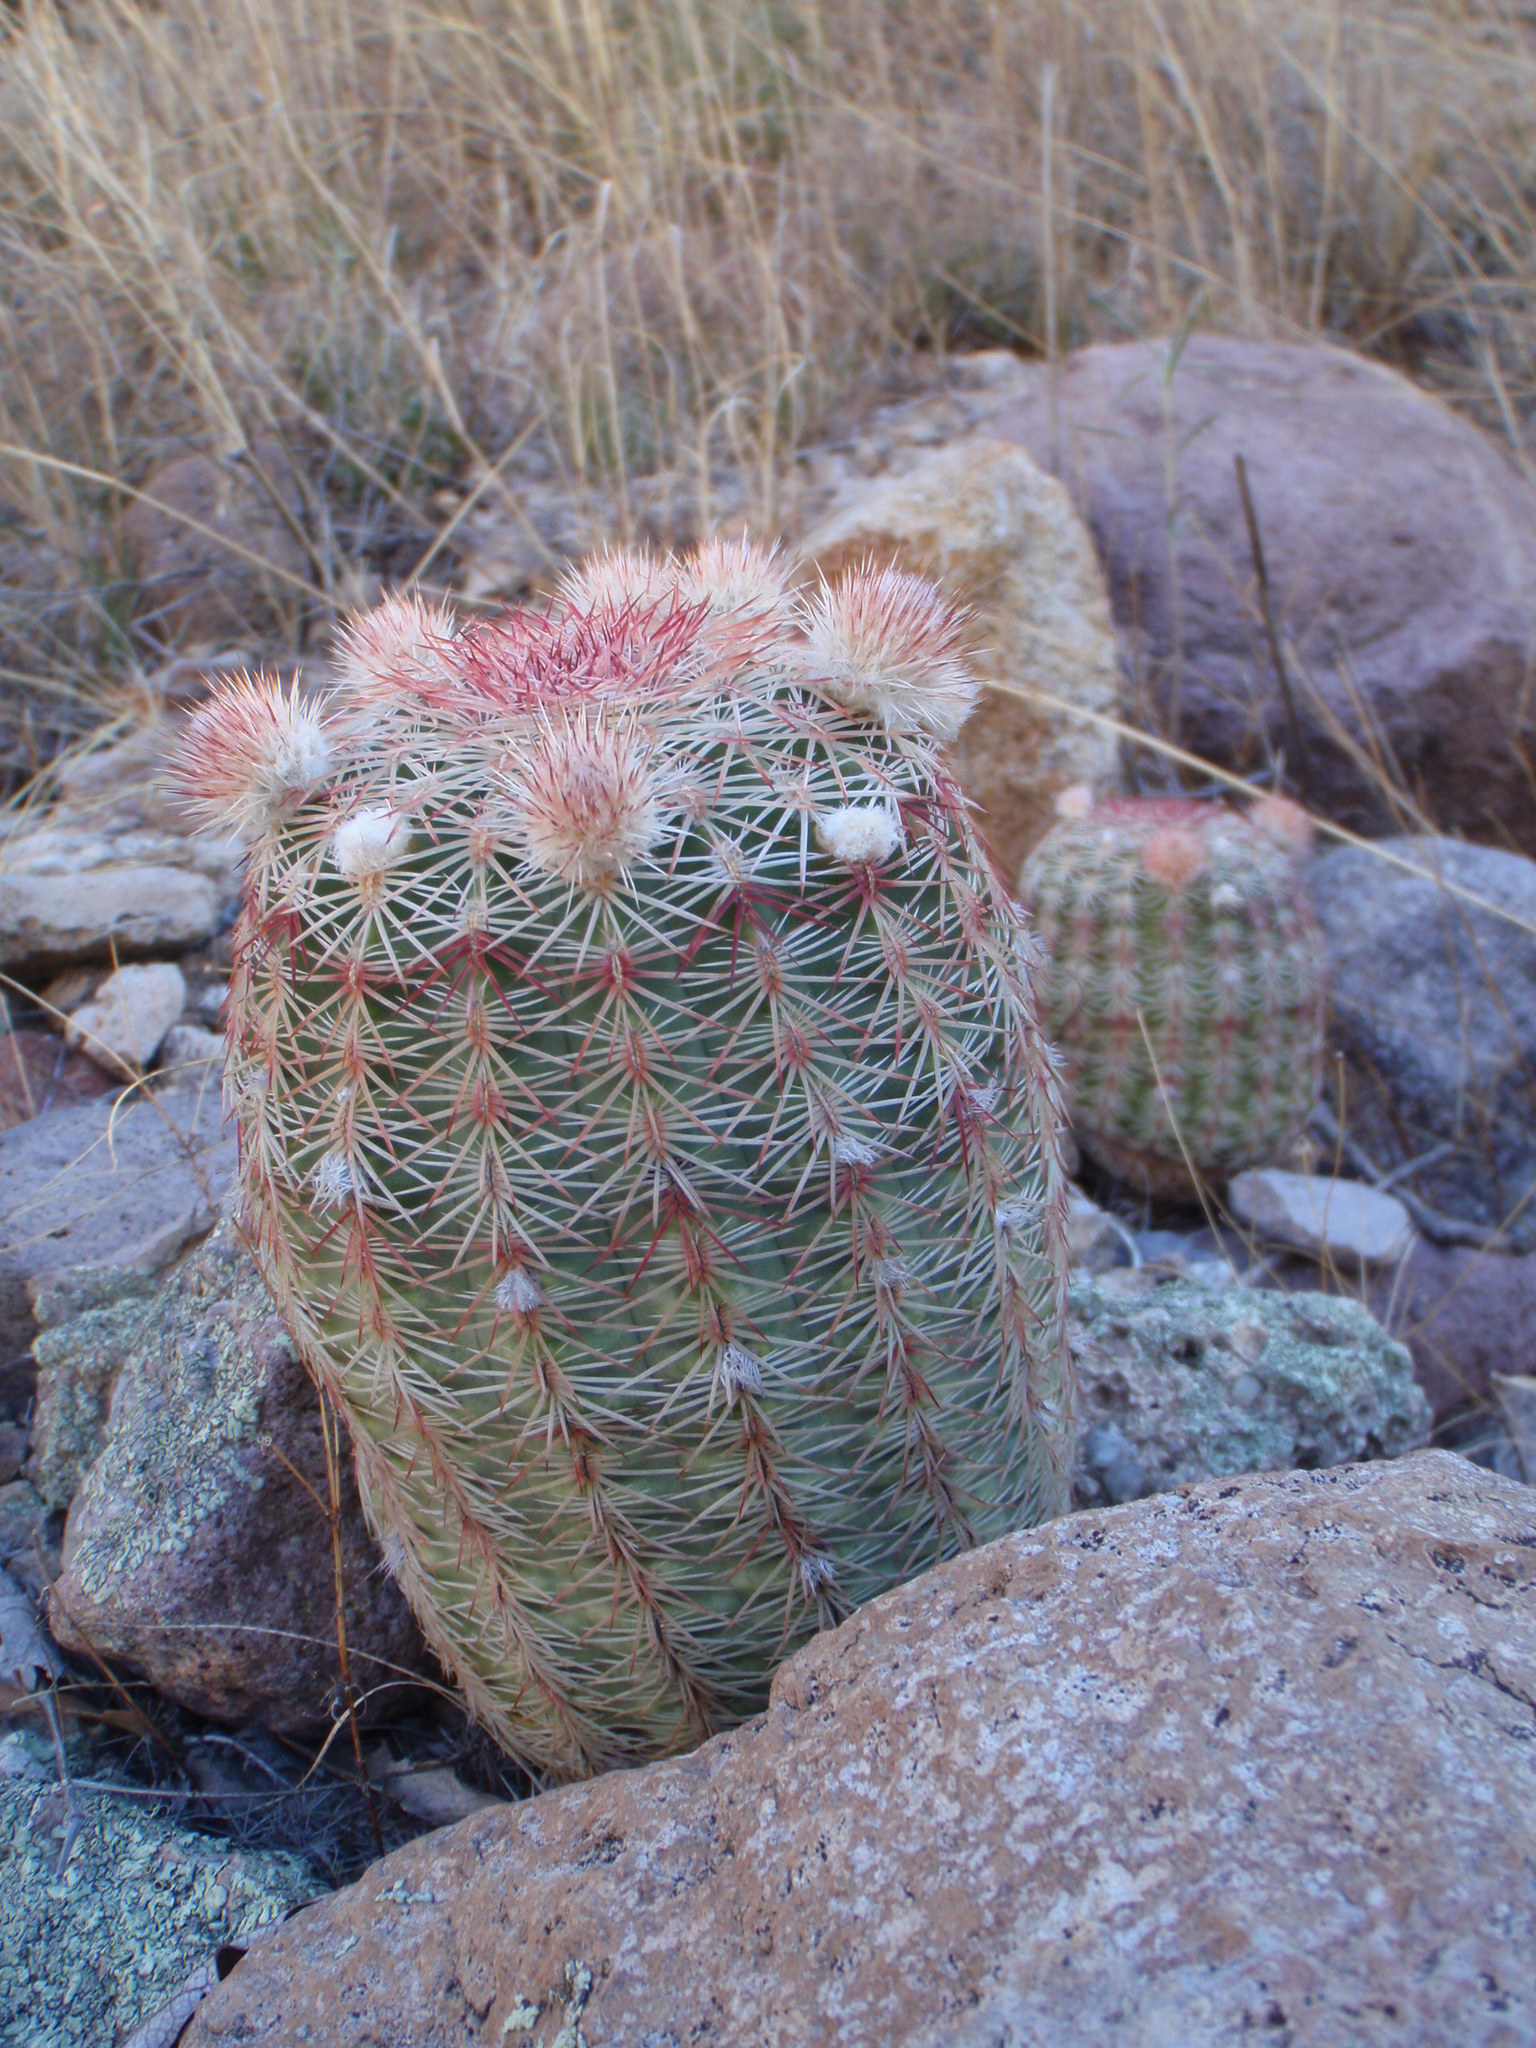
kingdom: Plantae
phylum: Tracheophyta
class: Magnoliopsida
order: Caryophyllales
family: Cactaceae
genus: Echinocereus
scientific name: Echinocereus rigidissimus
